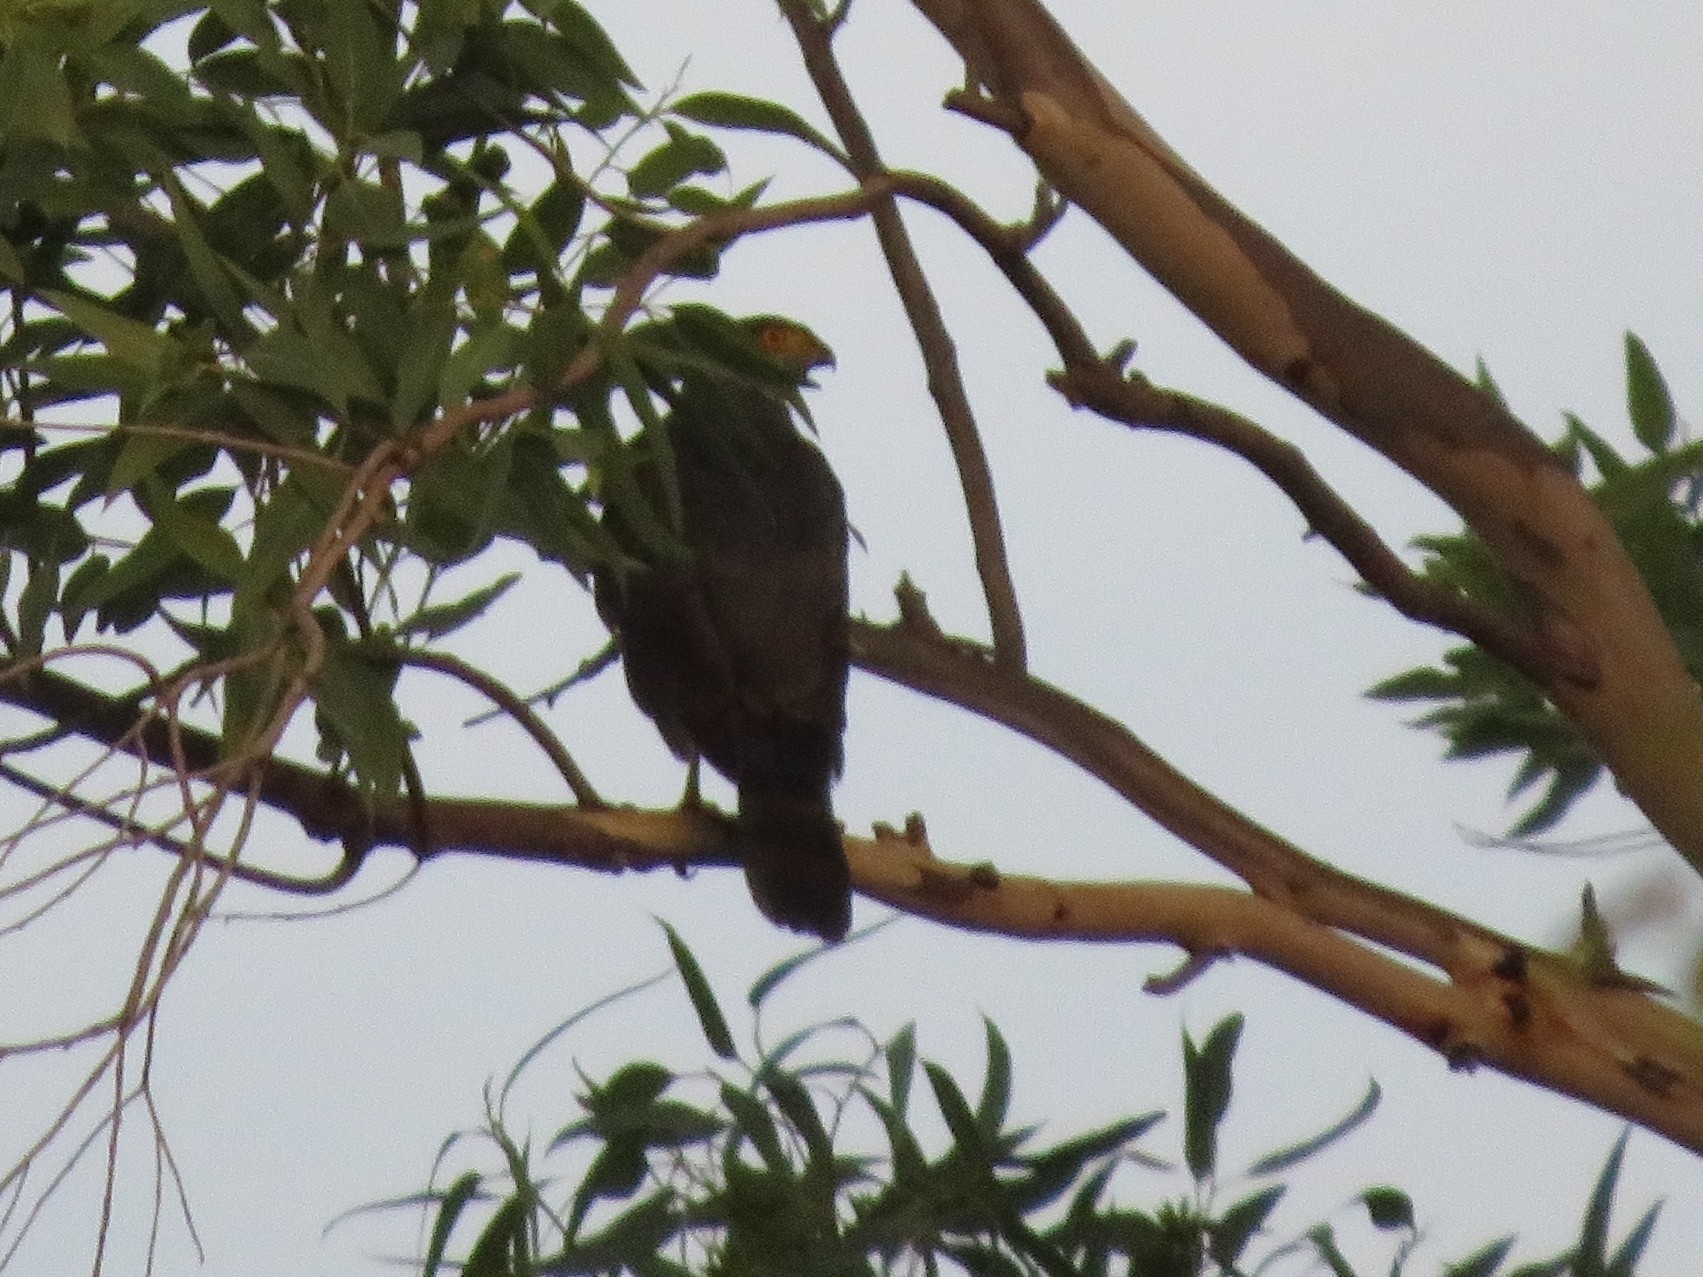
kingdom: Animalia
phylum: Chordata
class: Aves
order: Accipitriformes
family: Accipitridae
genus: Accipiter
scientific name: Accipiter bicolor
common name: Bicolored hawk
